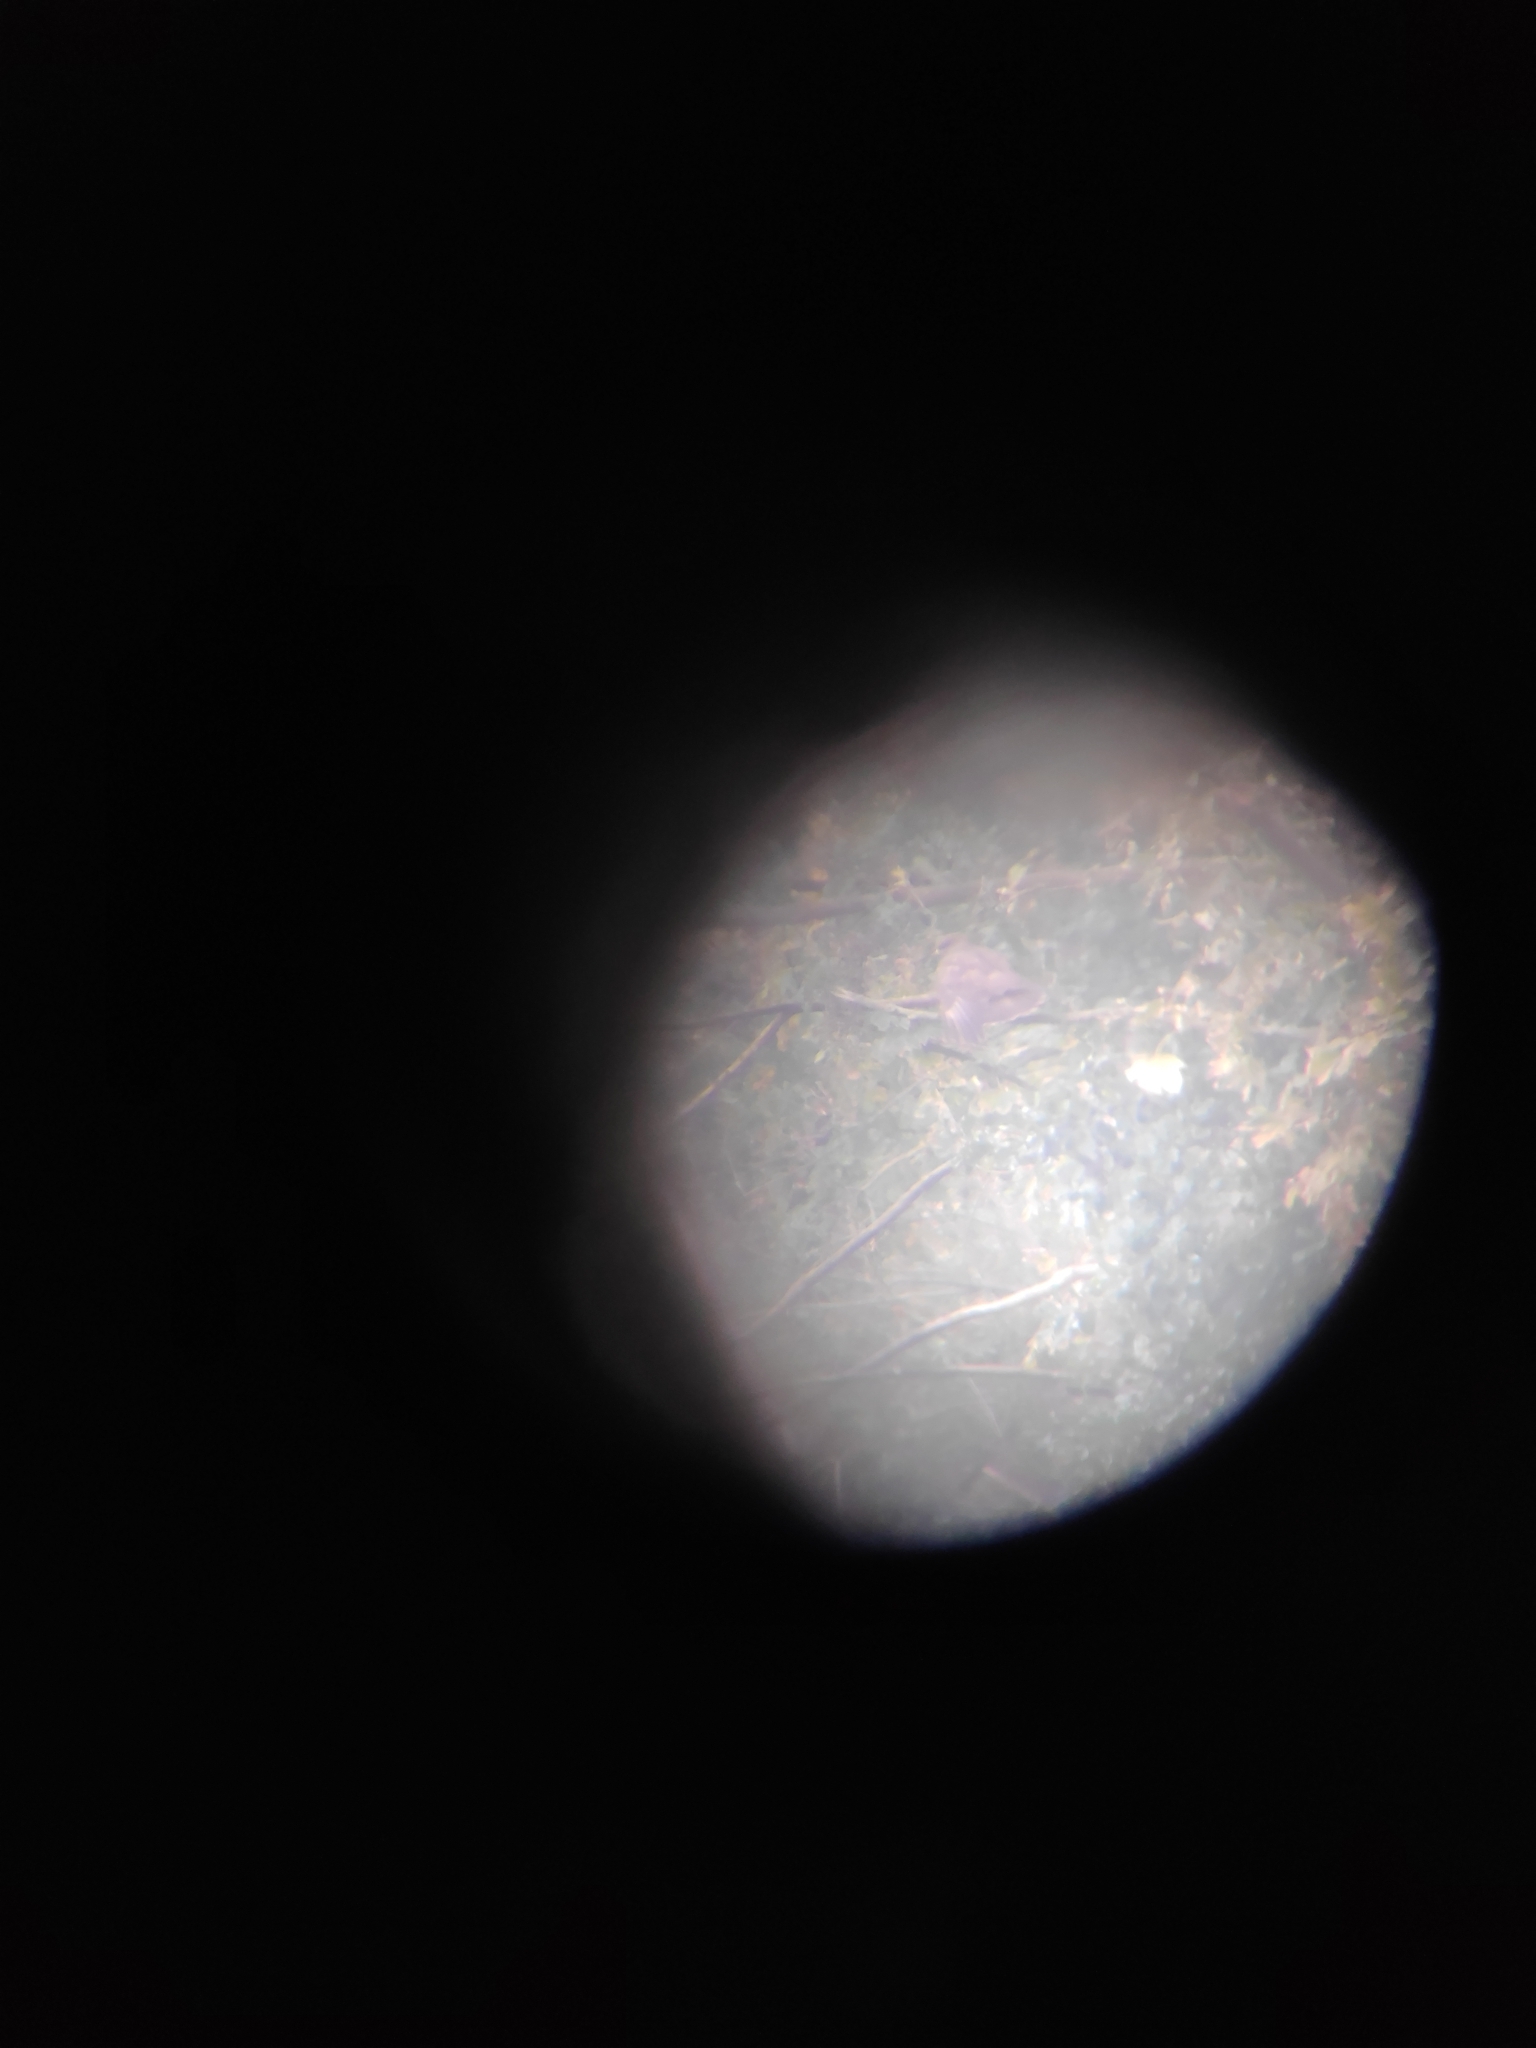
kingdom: Animalia
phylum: Chordata
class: Aves
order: Accipitriformes
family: Accipitridae
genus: Buteo
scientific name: Buteo buteo
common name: Common buzzard
